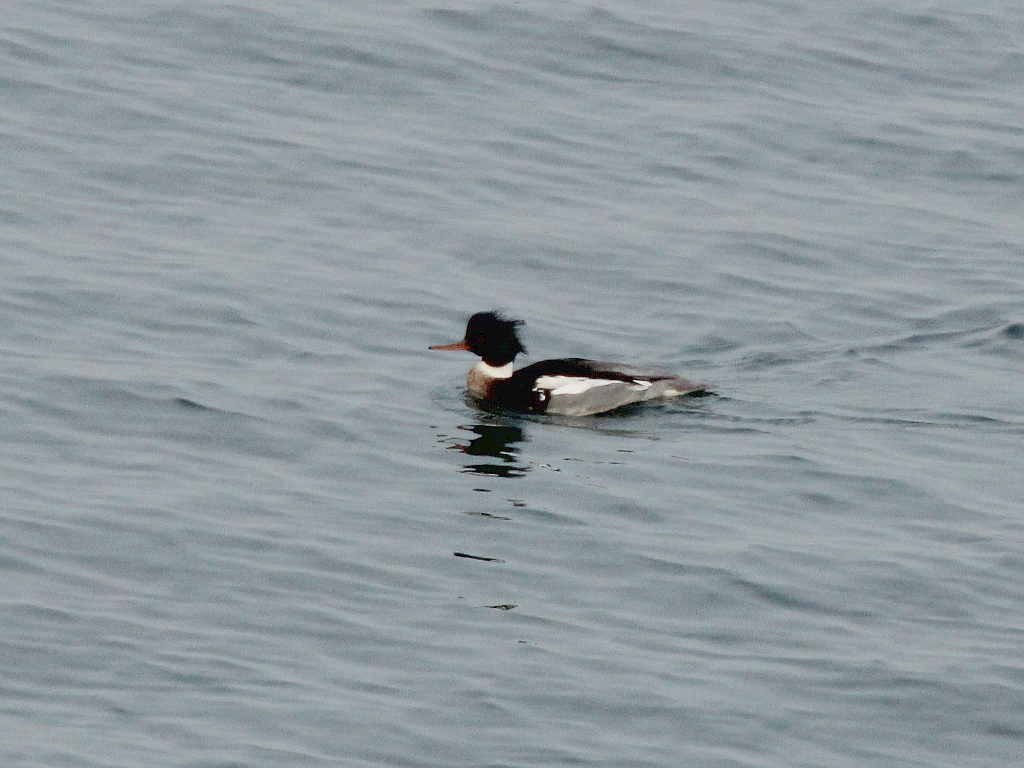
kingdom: Animalia
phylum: Chordata
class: Aves
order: Anseriformes
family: Anatidae
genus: Mergus
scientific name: Mergus serrator
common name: Red-breasted merganser
